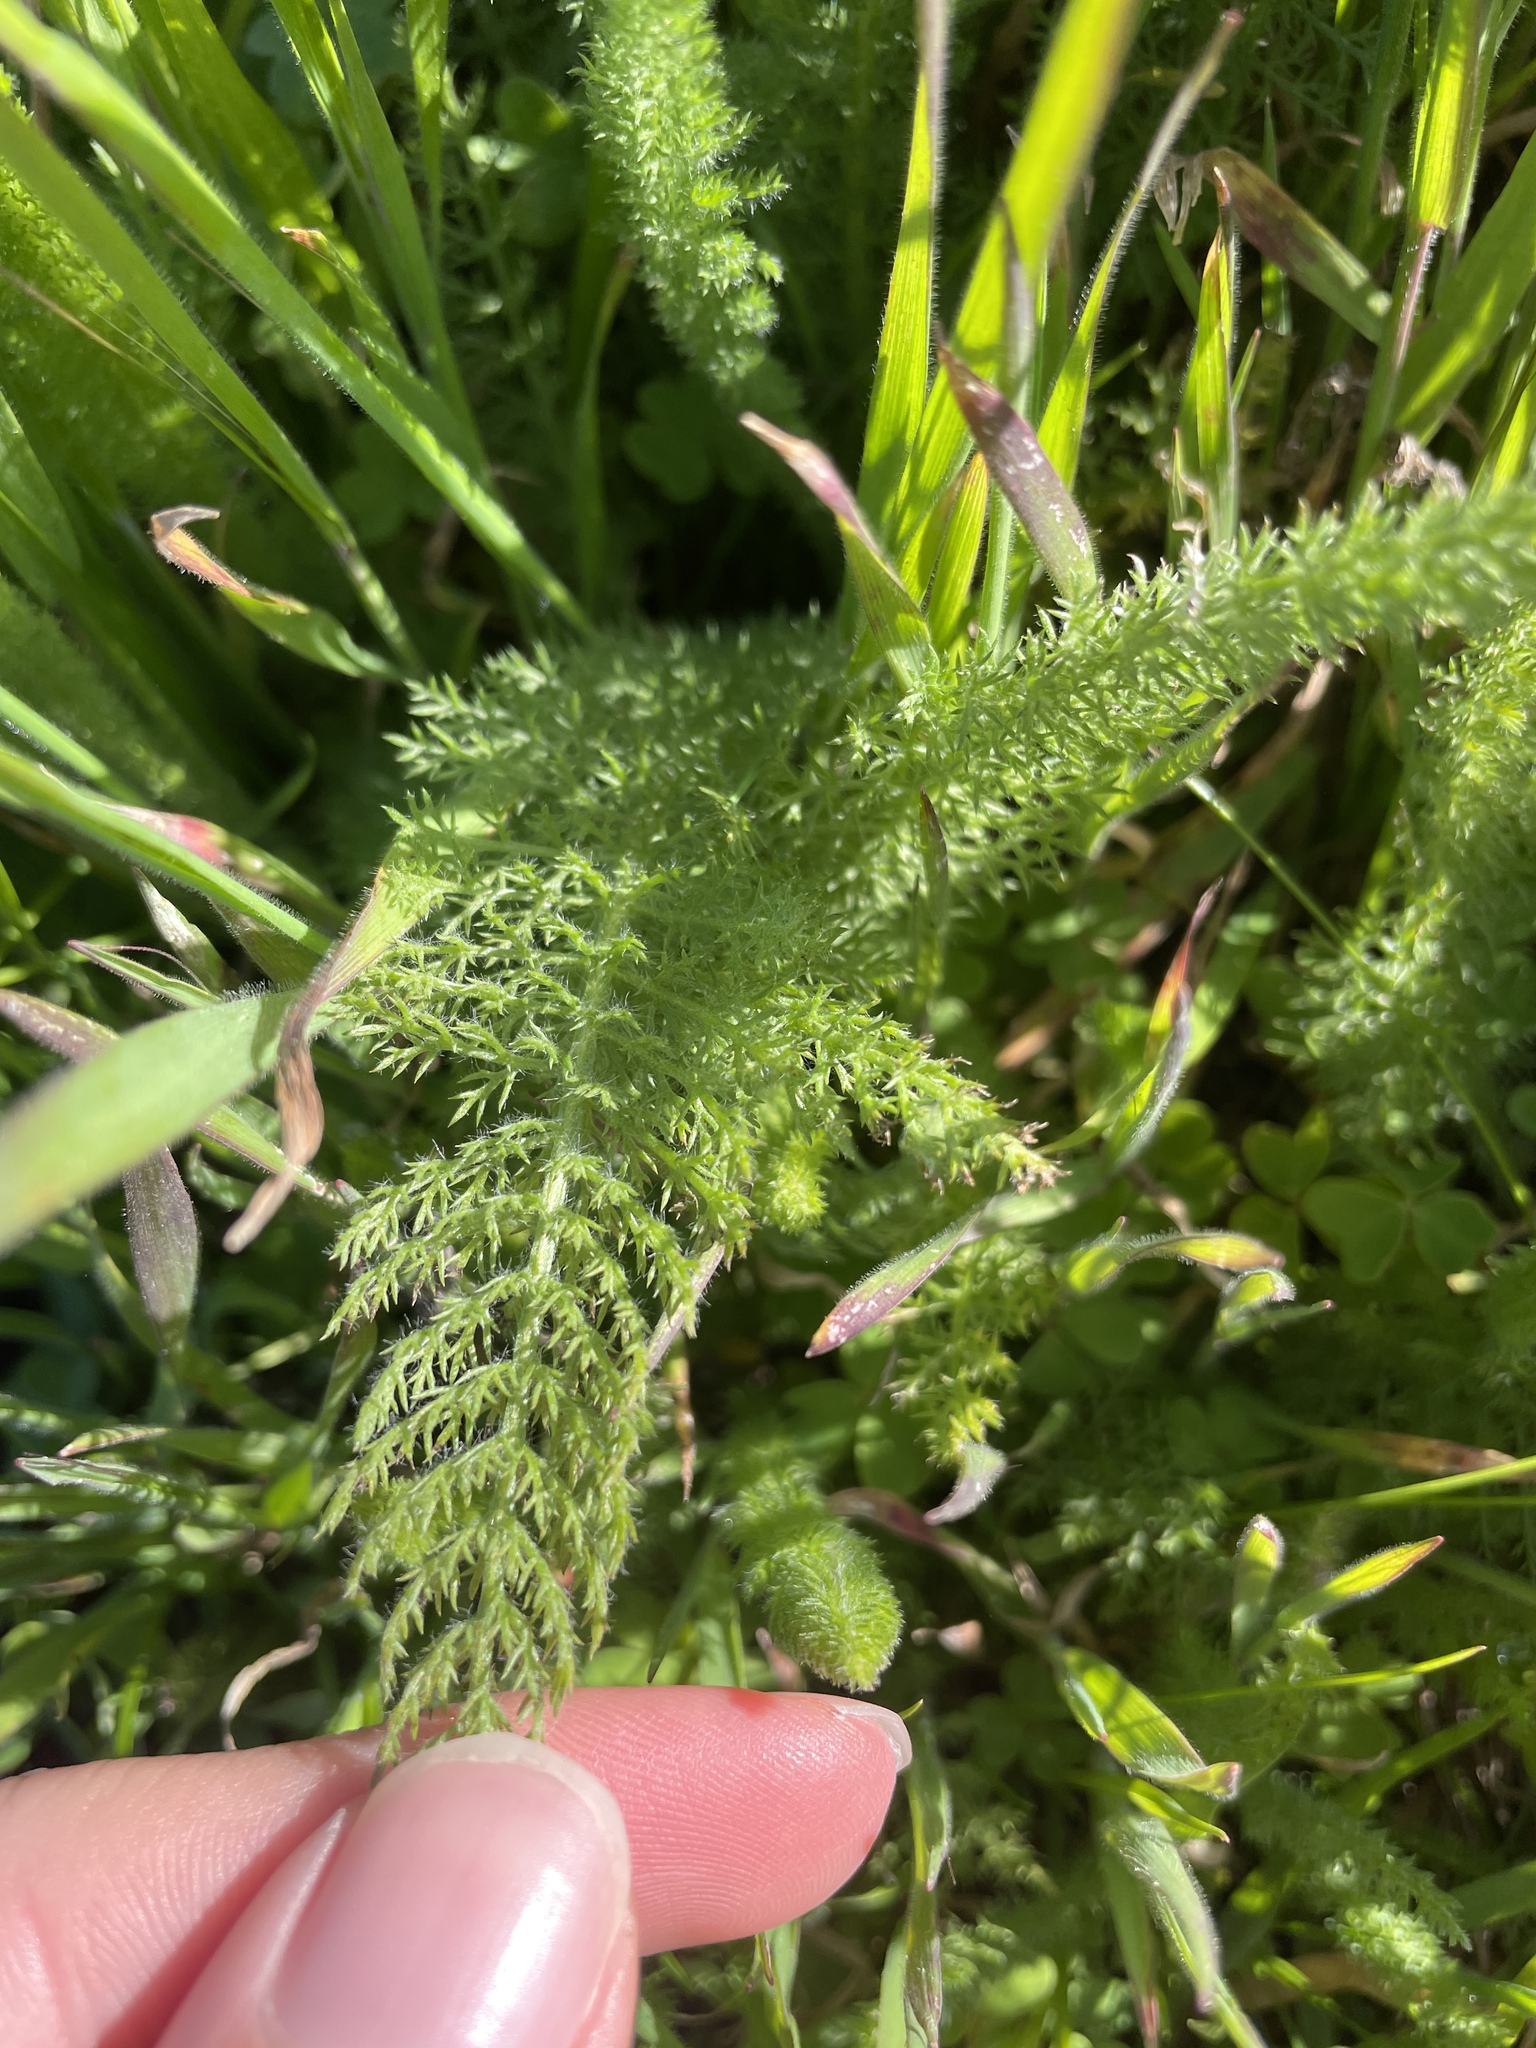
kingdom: Plantae
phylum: Tracheophyta
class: Magnoliopsida
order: Asterales
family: Asteraceae
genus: Achillea
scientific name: Achillea millefolium
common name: Yarrow
